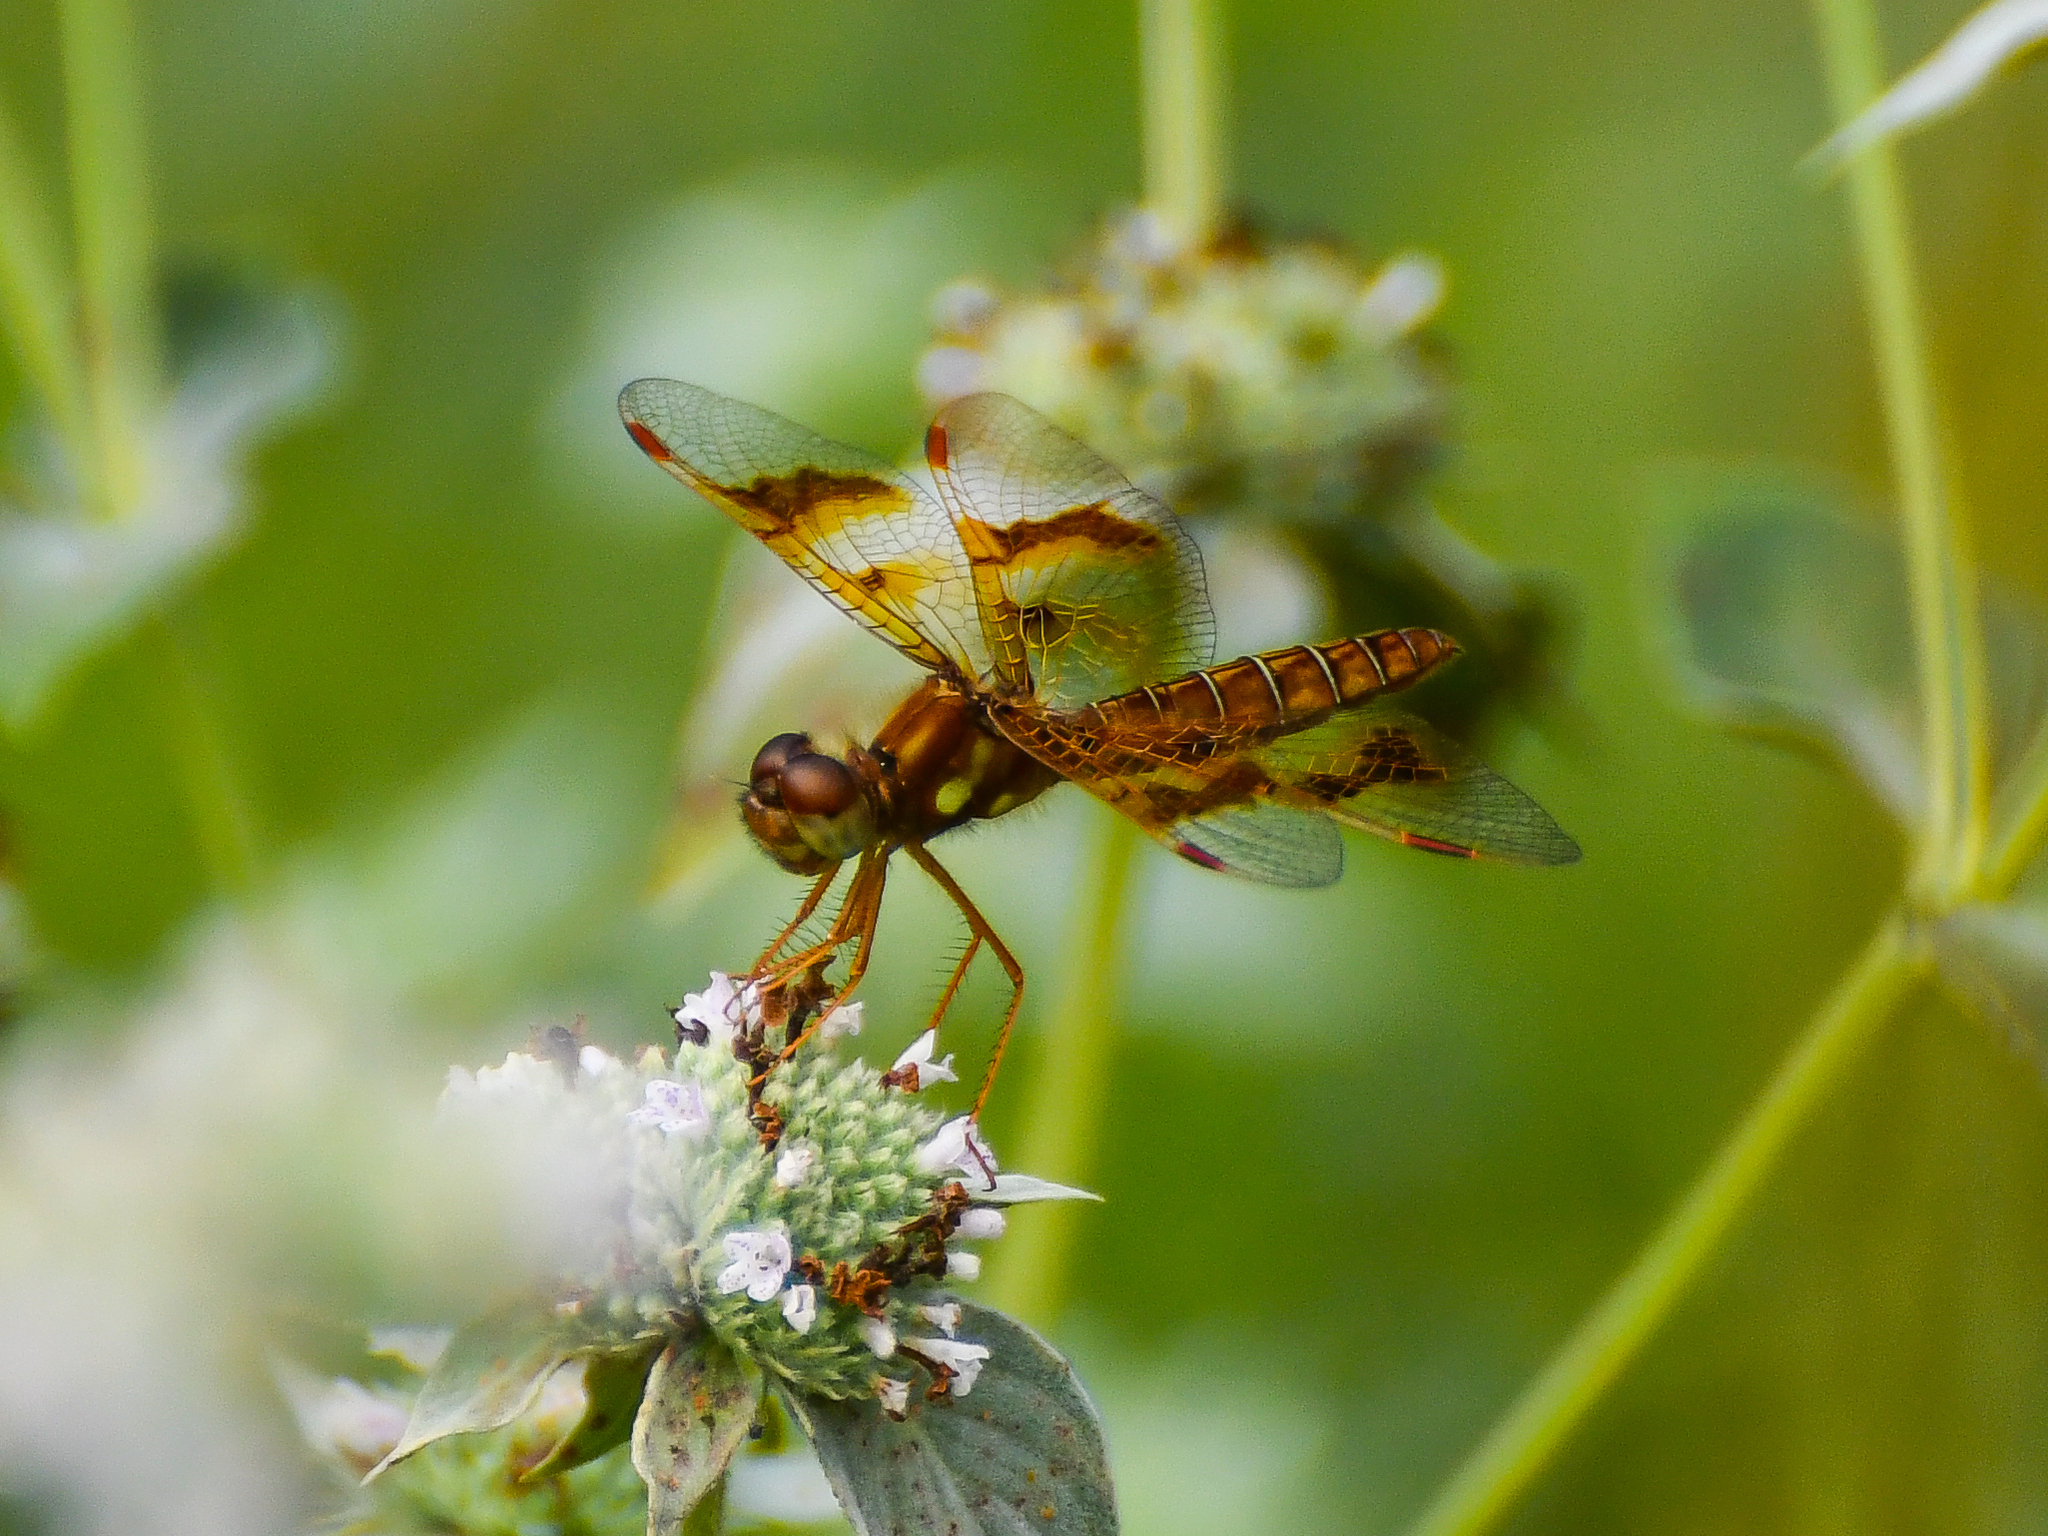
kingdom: Animalia
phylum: Arthropoda
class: Insecta
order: Odonata
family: Libellulidae
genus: Perithemis
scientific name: Perithemis tenera
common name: Eastern amberwing
